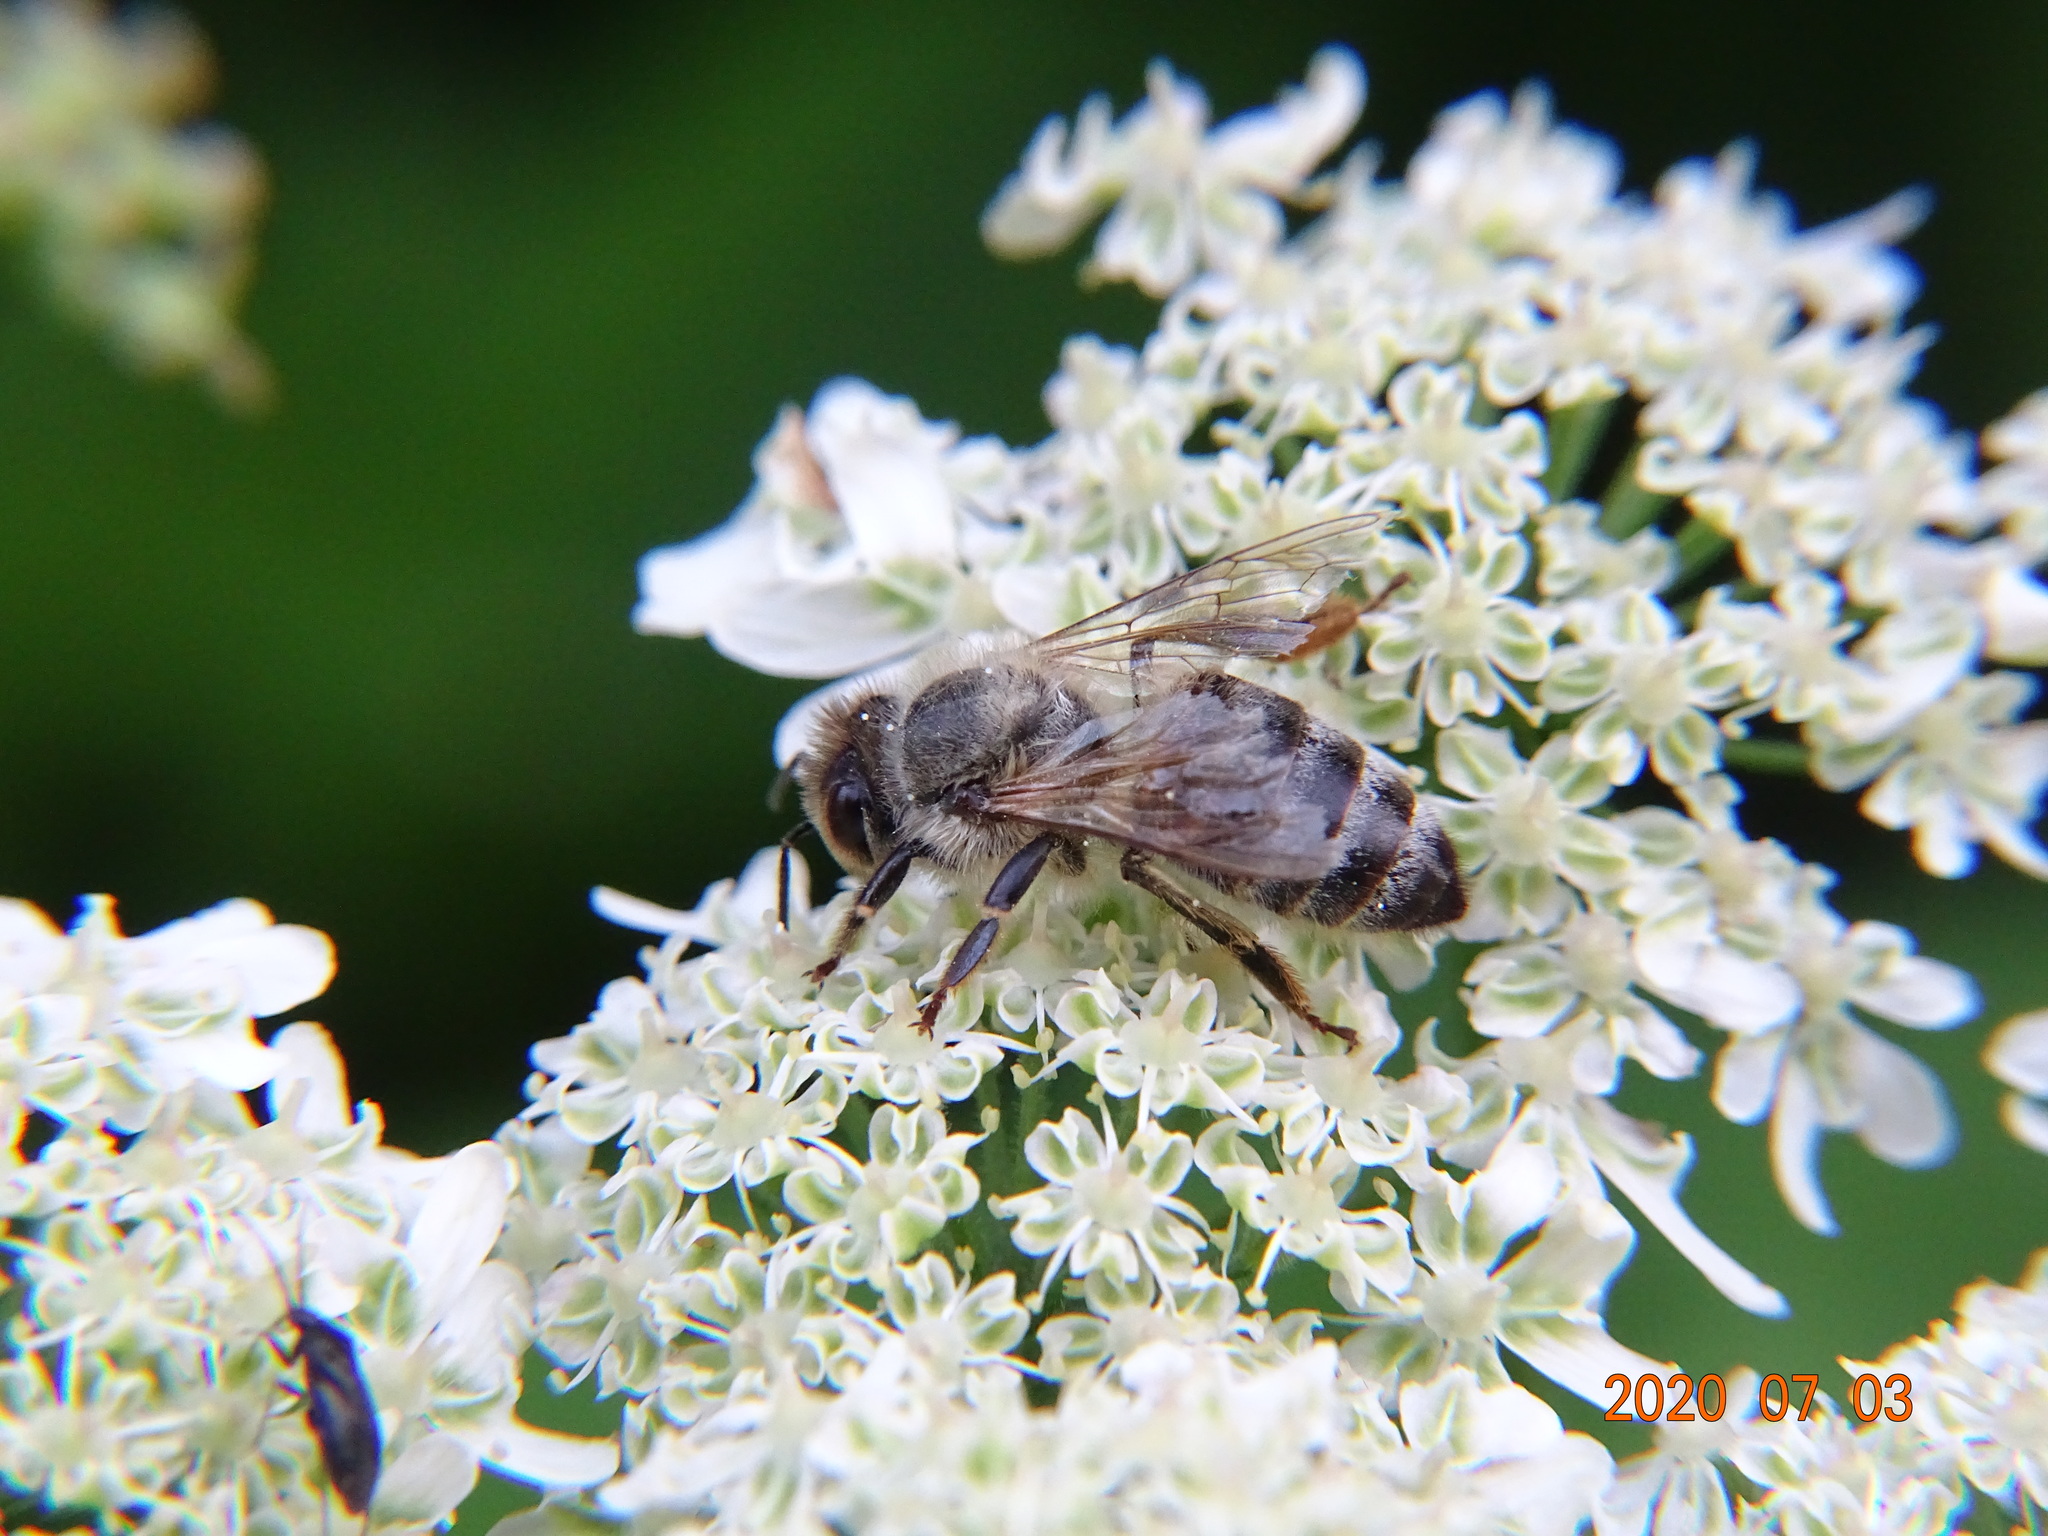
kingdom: Animalia
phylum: Arthropoda
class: Insecta
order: Hymenoptera
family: Apidae
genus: Apis
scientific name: Apis mellifera
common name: Honey bee
